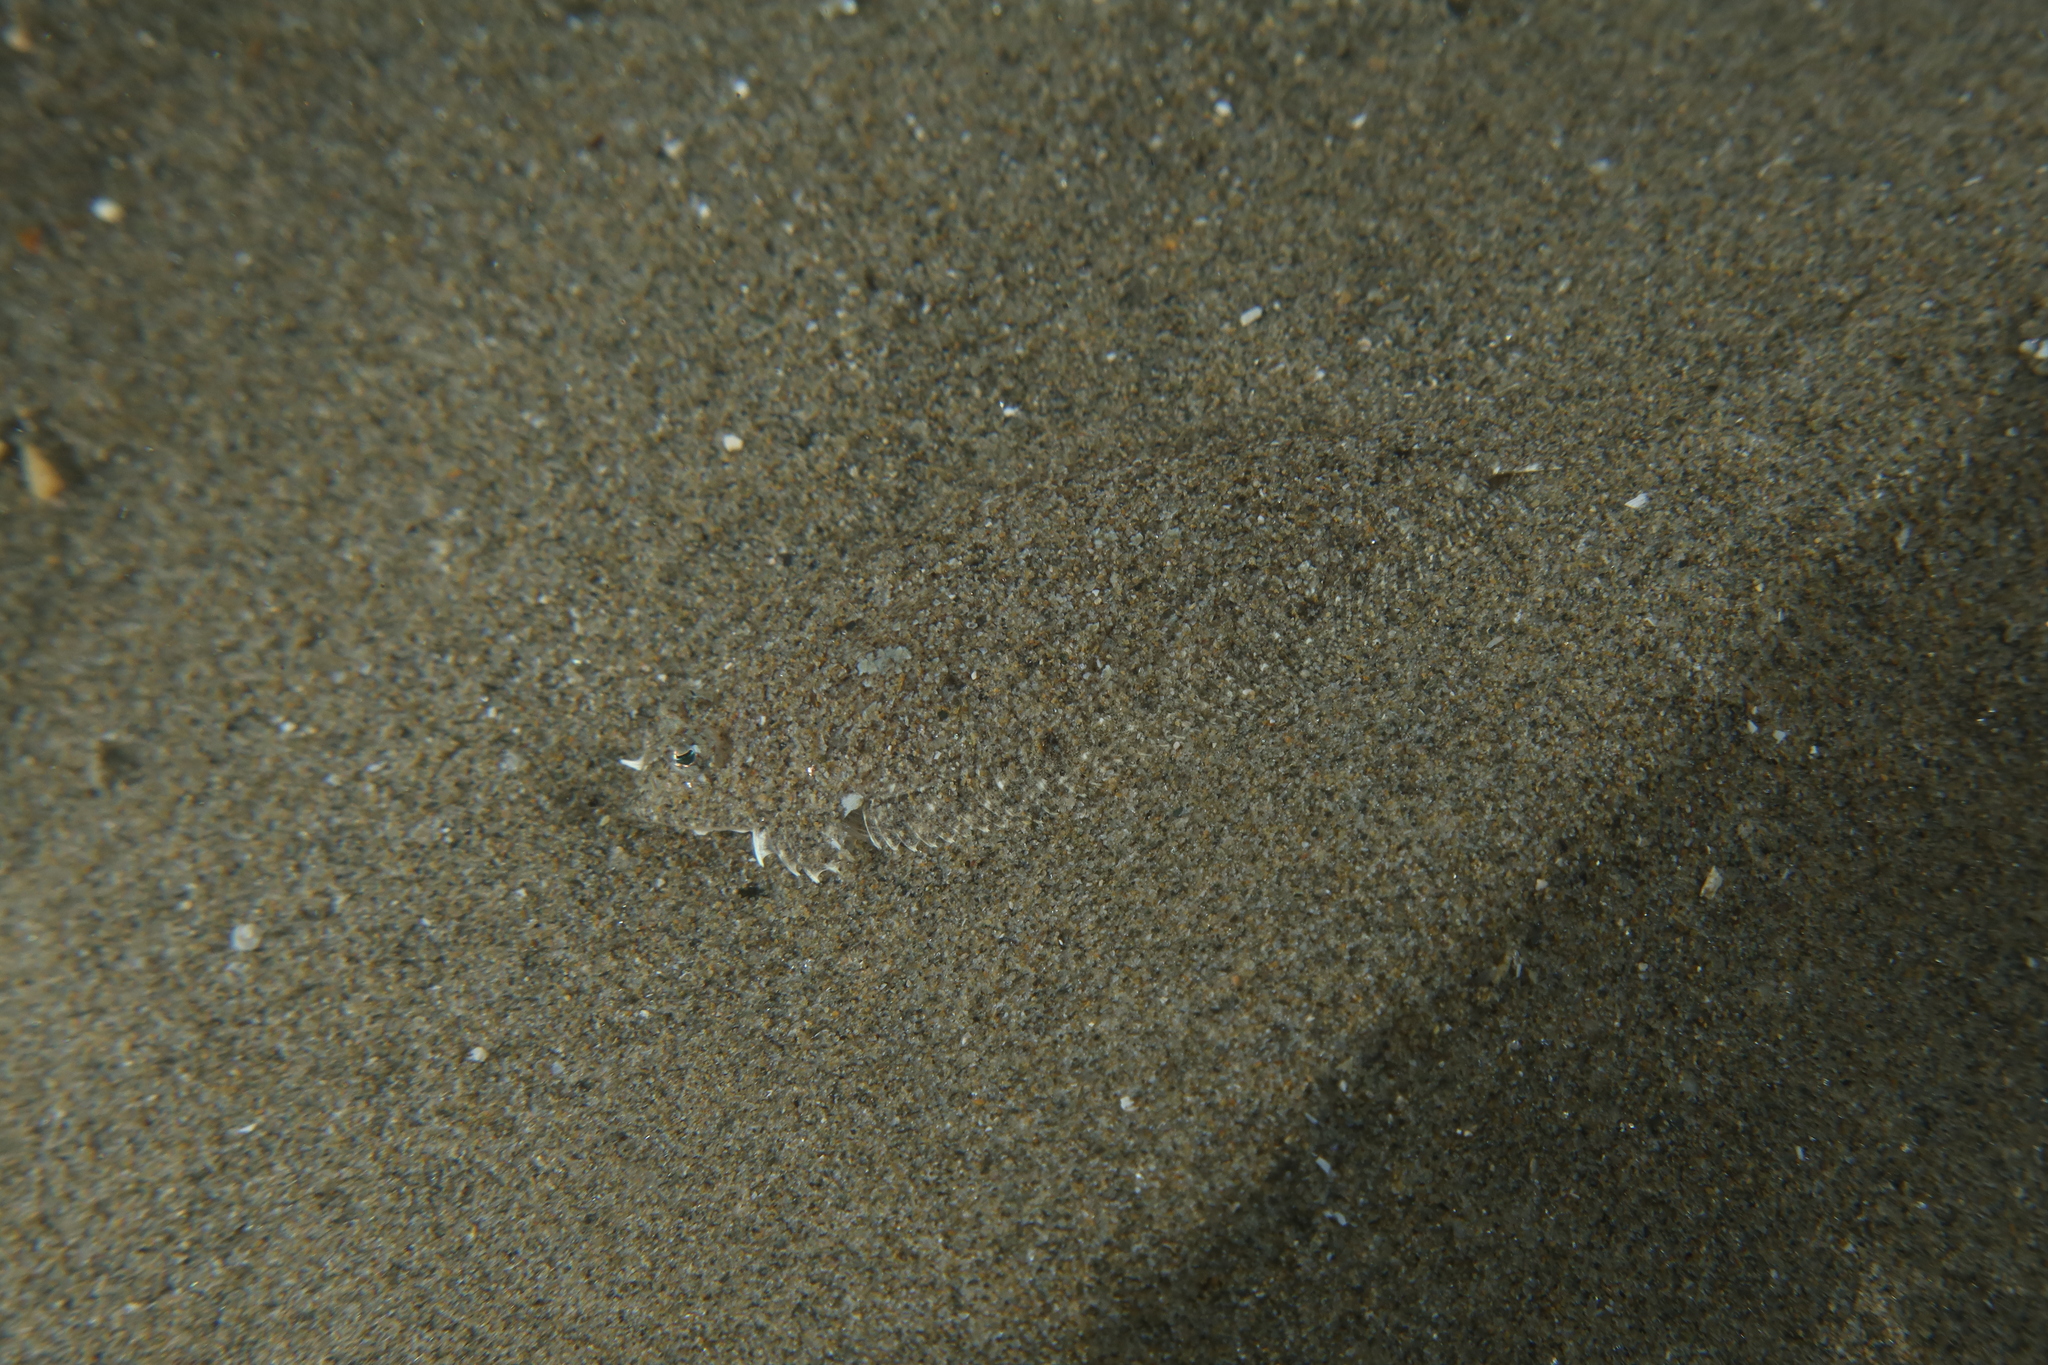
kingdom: Animalia
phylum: Chordata
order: Pleuronectiformes
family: Bothidae
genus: Arnoglossus
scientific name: Arnoglossus grohmanni
